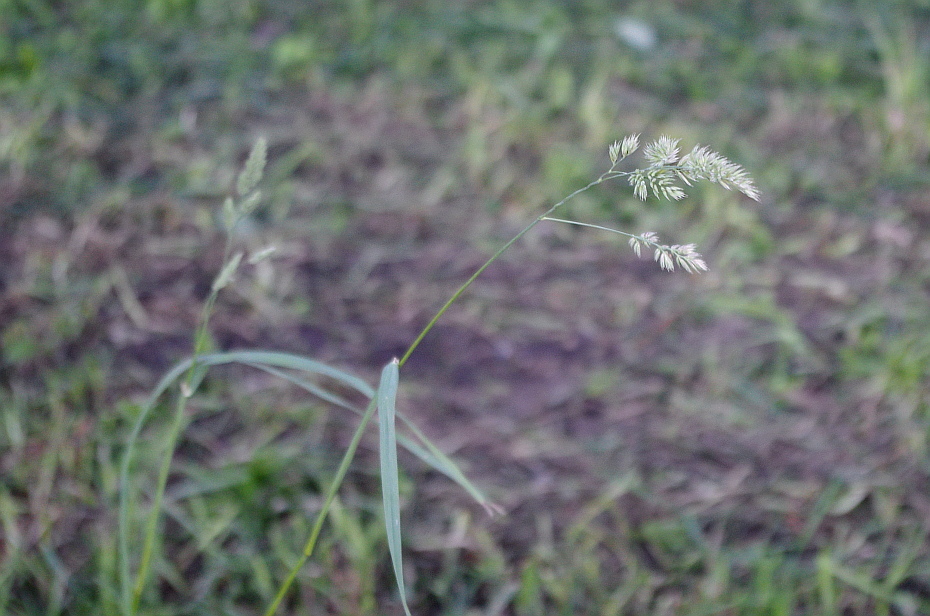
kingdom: Plantae
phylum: Tracheophyta
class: Liliopsida
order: Poales
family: Poaceae
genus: Dactylis
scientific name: Dactylis glomerata
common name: Orchardgrass
